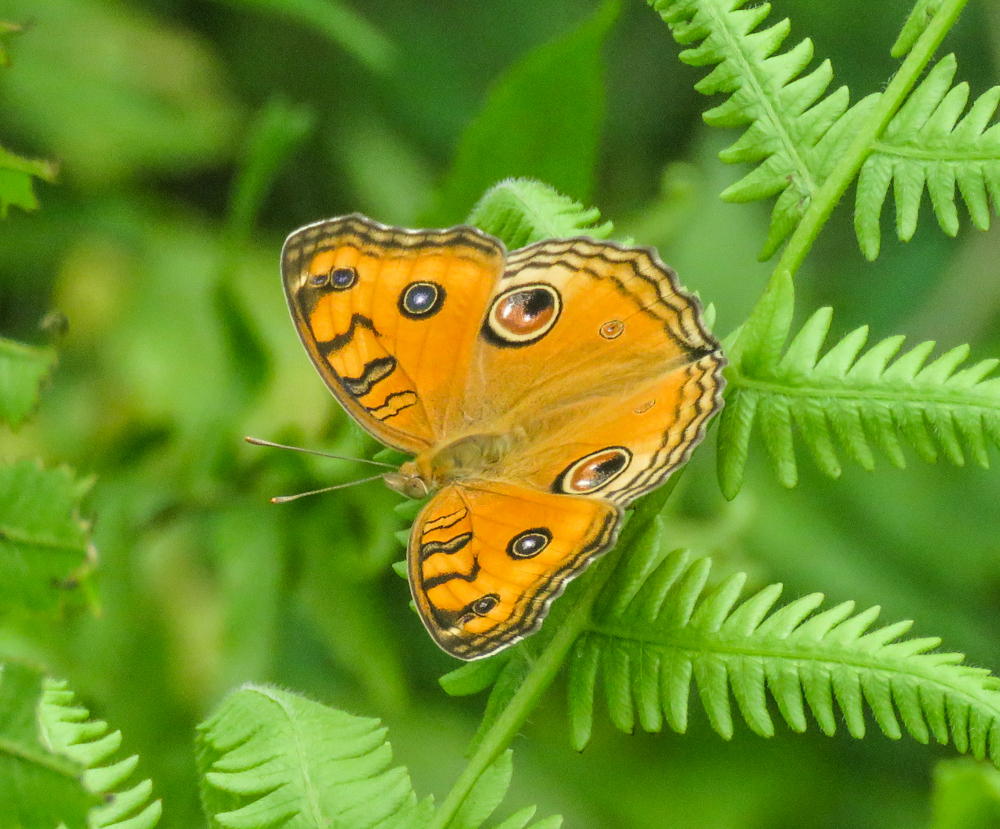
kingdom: Animalia
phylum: Arthropoda
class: Insecta
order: Lepidoptera
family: Nymphalidae
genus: Junonia
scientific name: Junonia almana
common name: Peacock pansy
